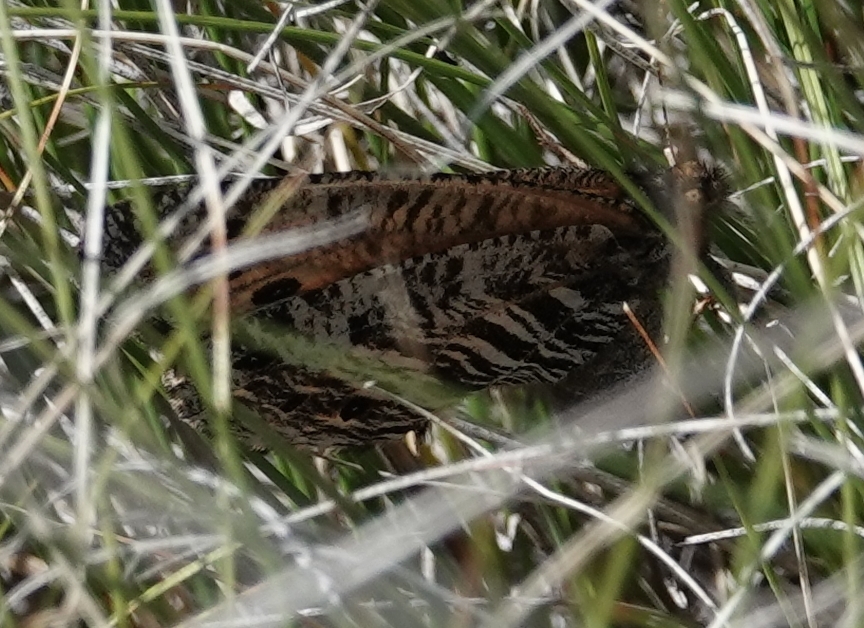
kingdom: Animalia
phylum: Arthropoda
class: Insecta
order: Lepidoptera
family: Nymphalidae
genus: Oeneis
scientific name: Oeneis uhleri
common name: Uhler's arctic
